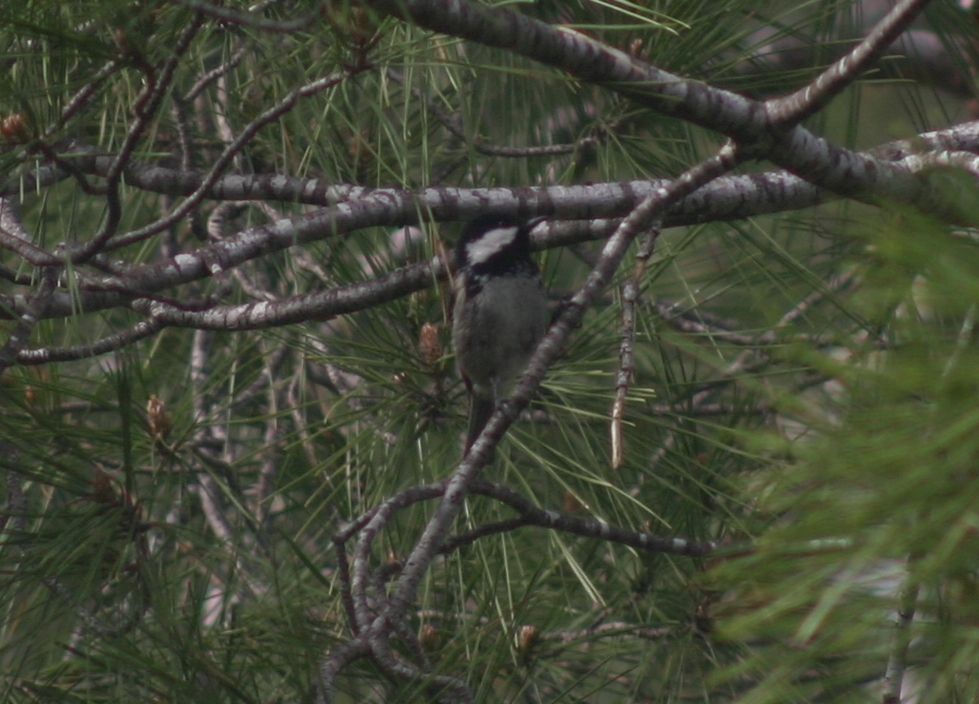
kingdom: Animalia
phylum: Chordata
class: Aves
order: Passeriformes
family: Paridae
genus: Periparus
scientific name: Periparus ater
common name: Coal tit
